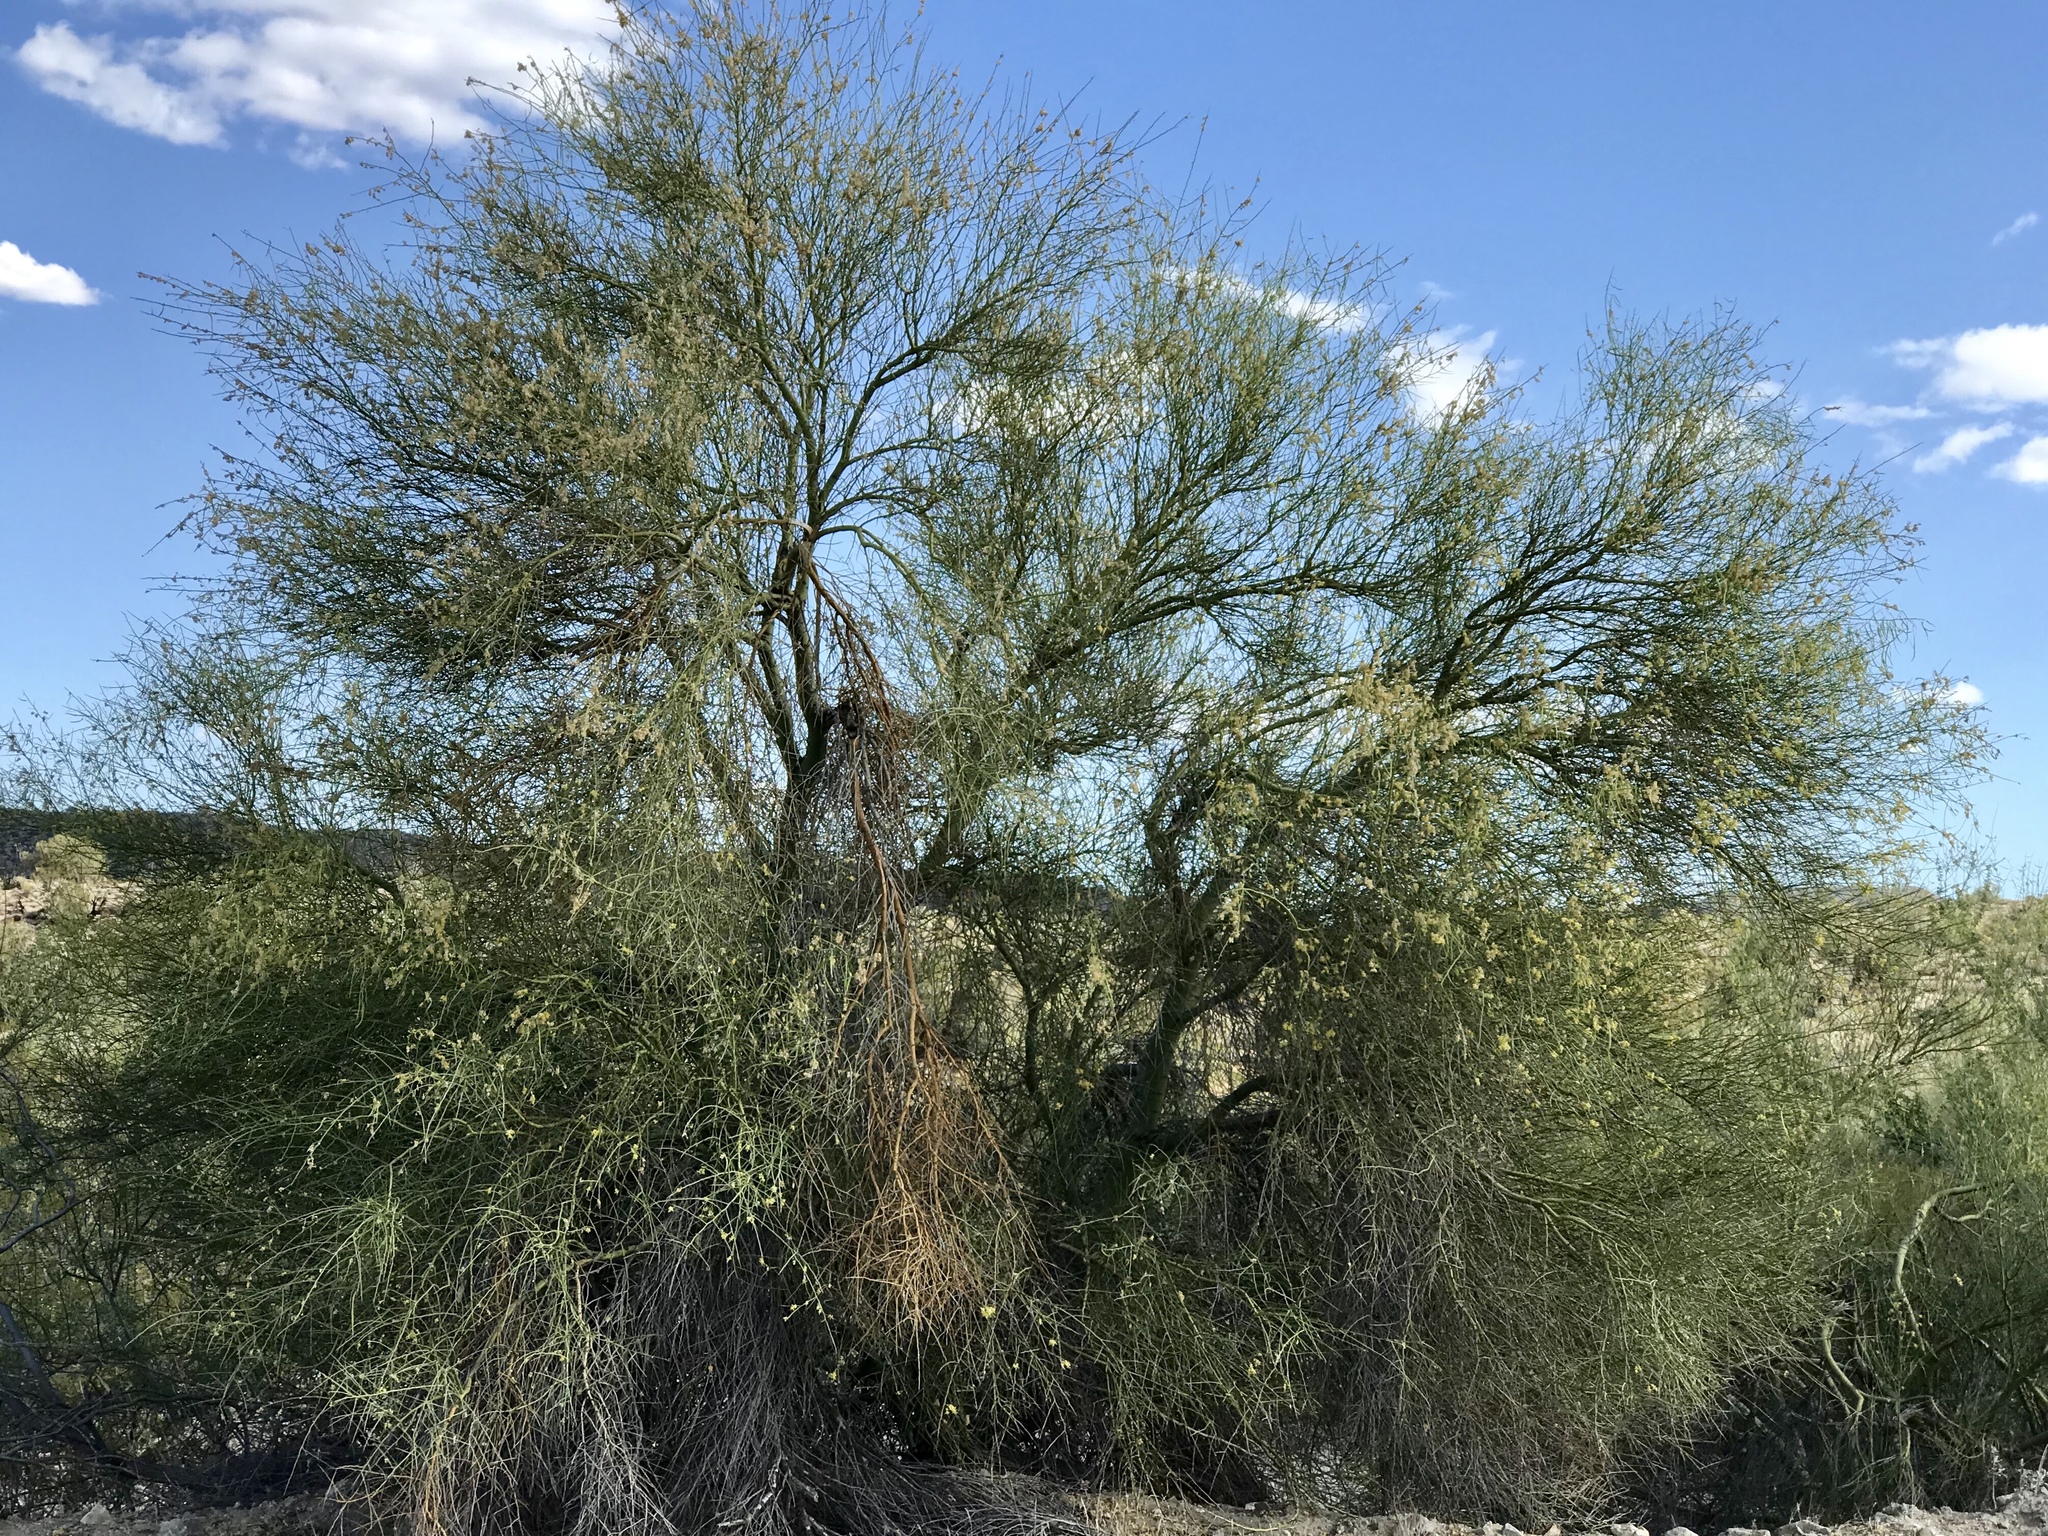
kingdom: Plantae
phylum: Tracheophyta
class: Magnoliopsida
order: Fabales
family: Fabaceae
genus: Parkinsonia
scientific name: Parkinsonia florida
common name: Blue paloverde
